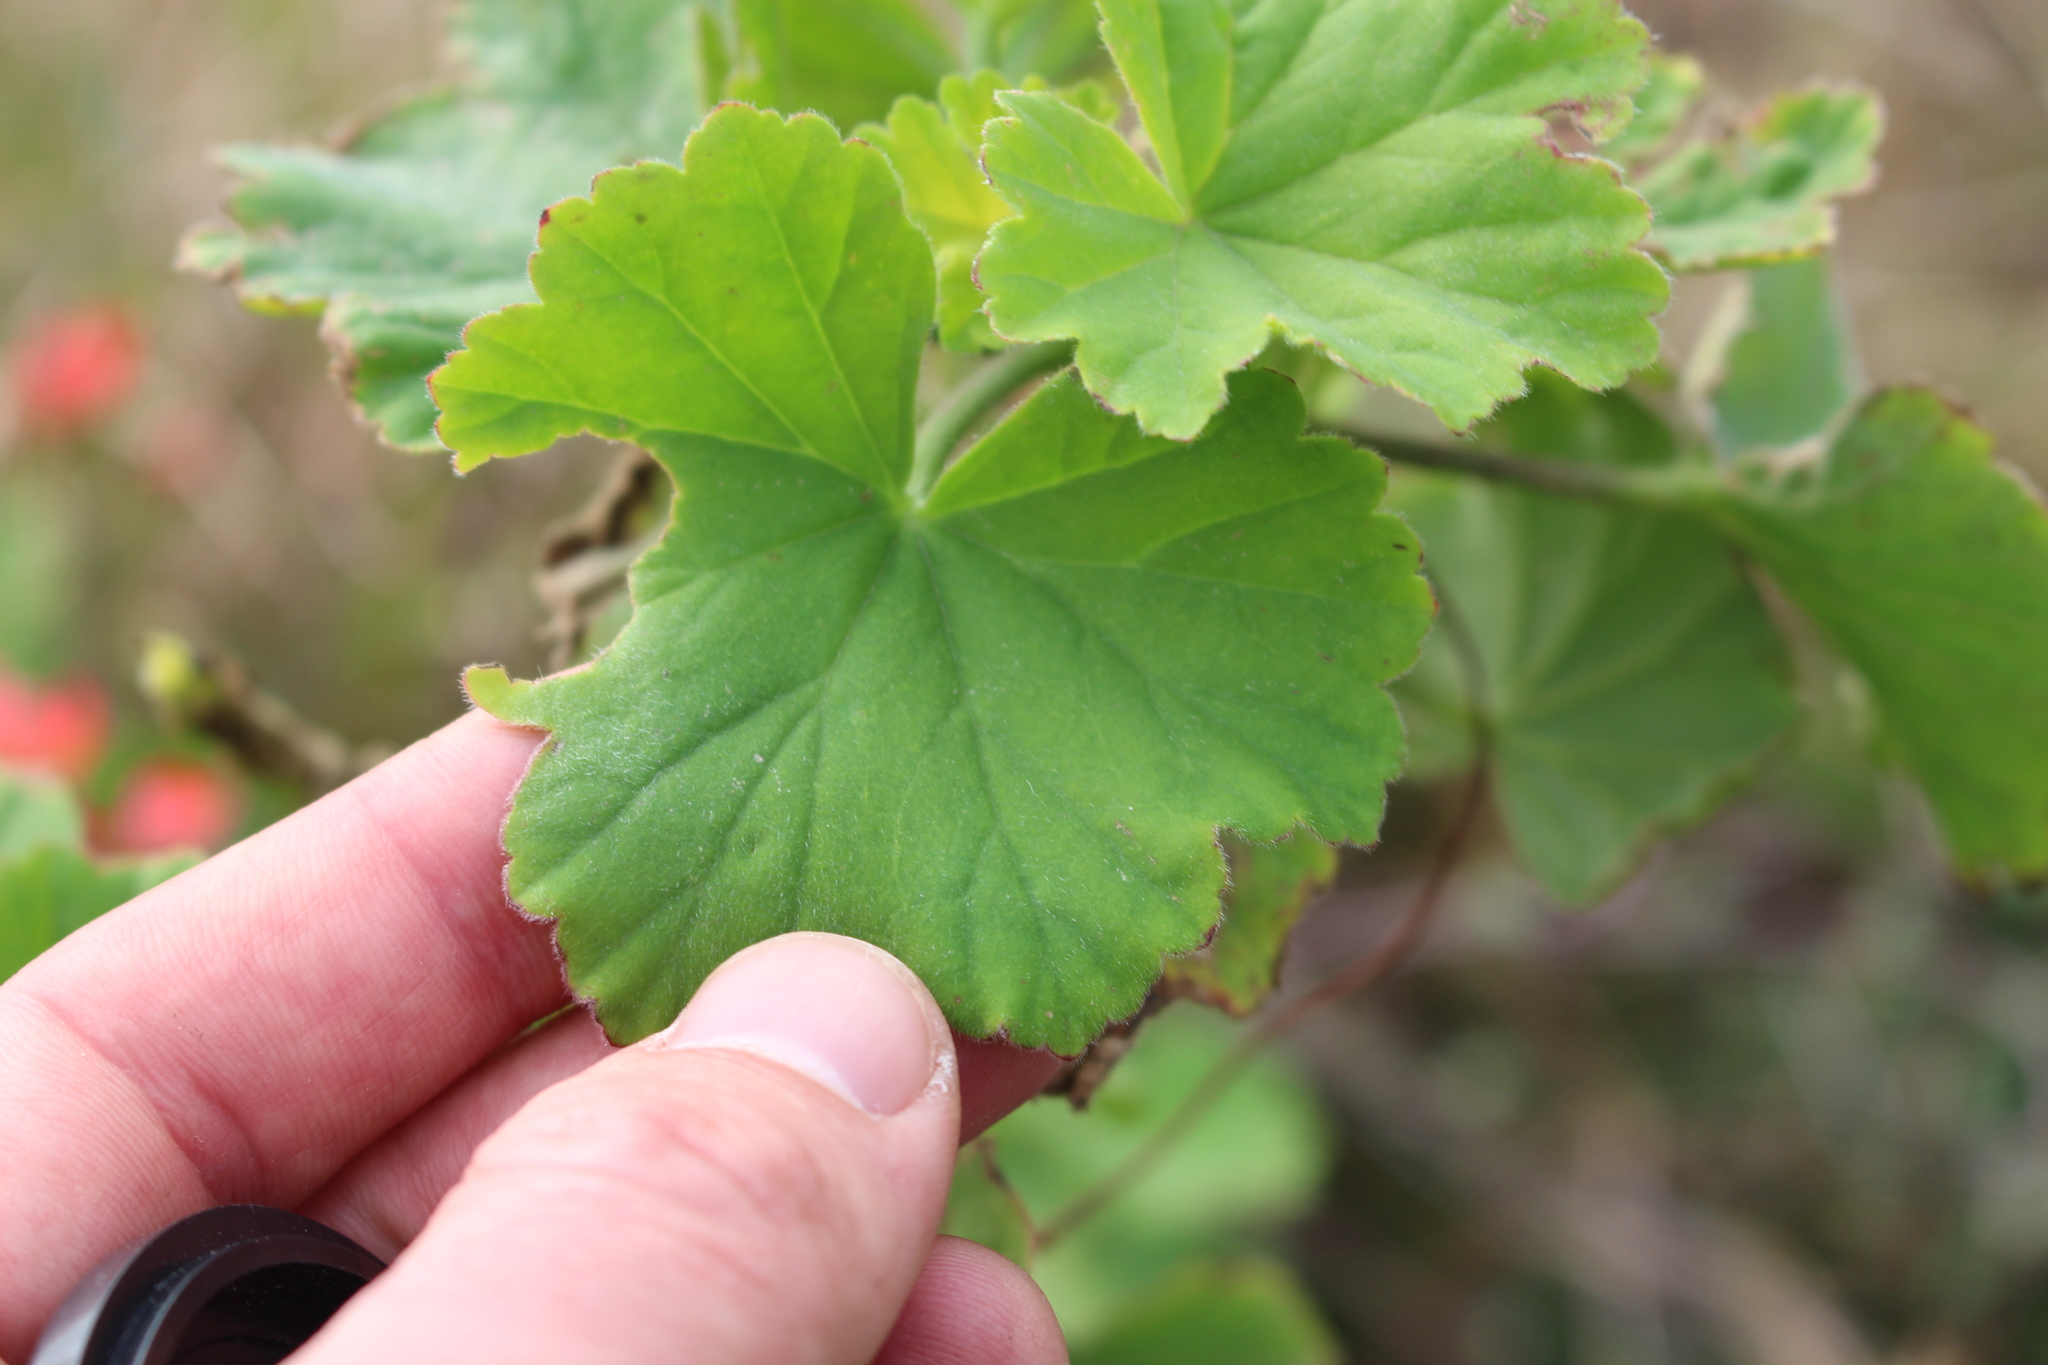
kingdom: Plantae
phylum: Tracheophyta
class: Magnoliopsida
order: Geraniales
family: Geraniaceae
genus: Pelargonium
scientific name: Pelargonium hybridum
